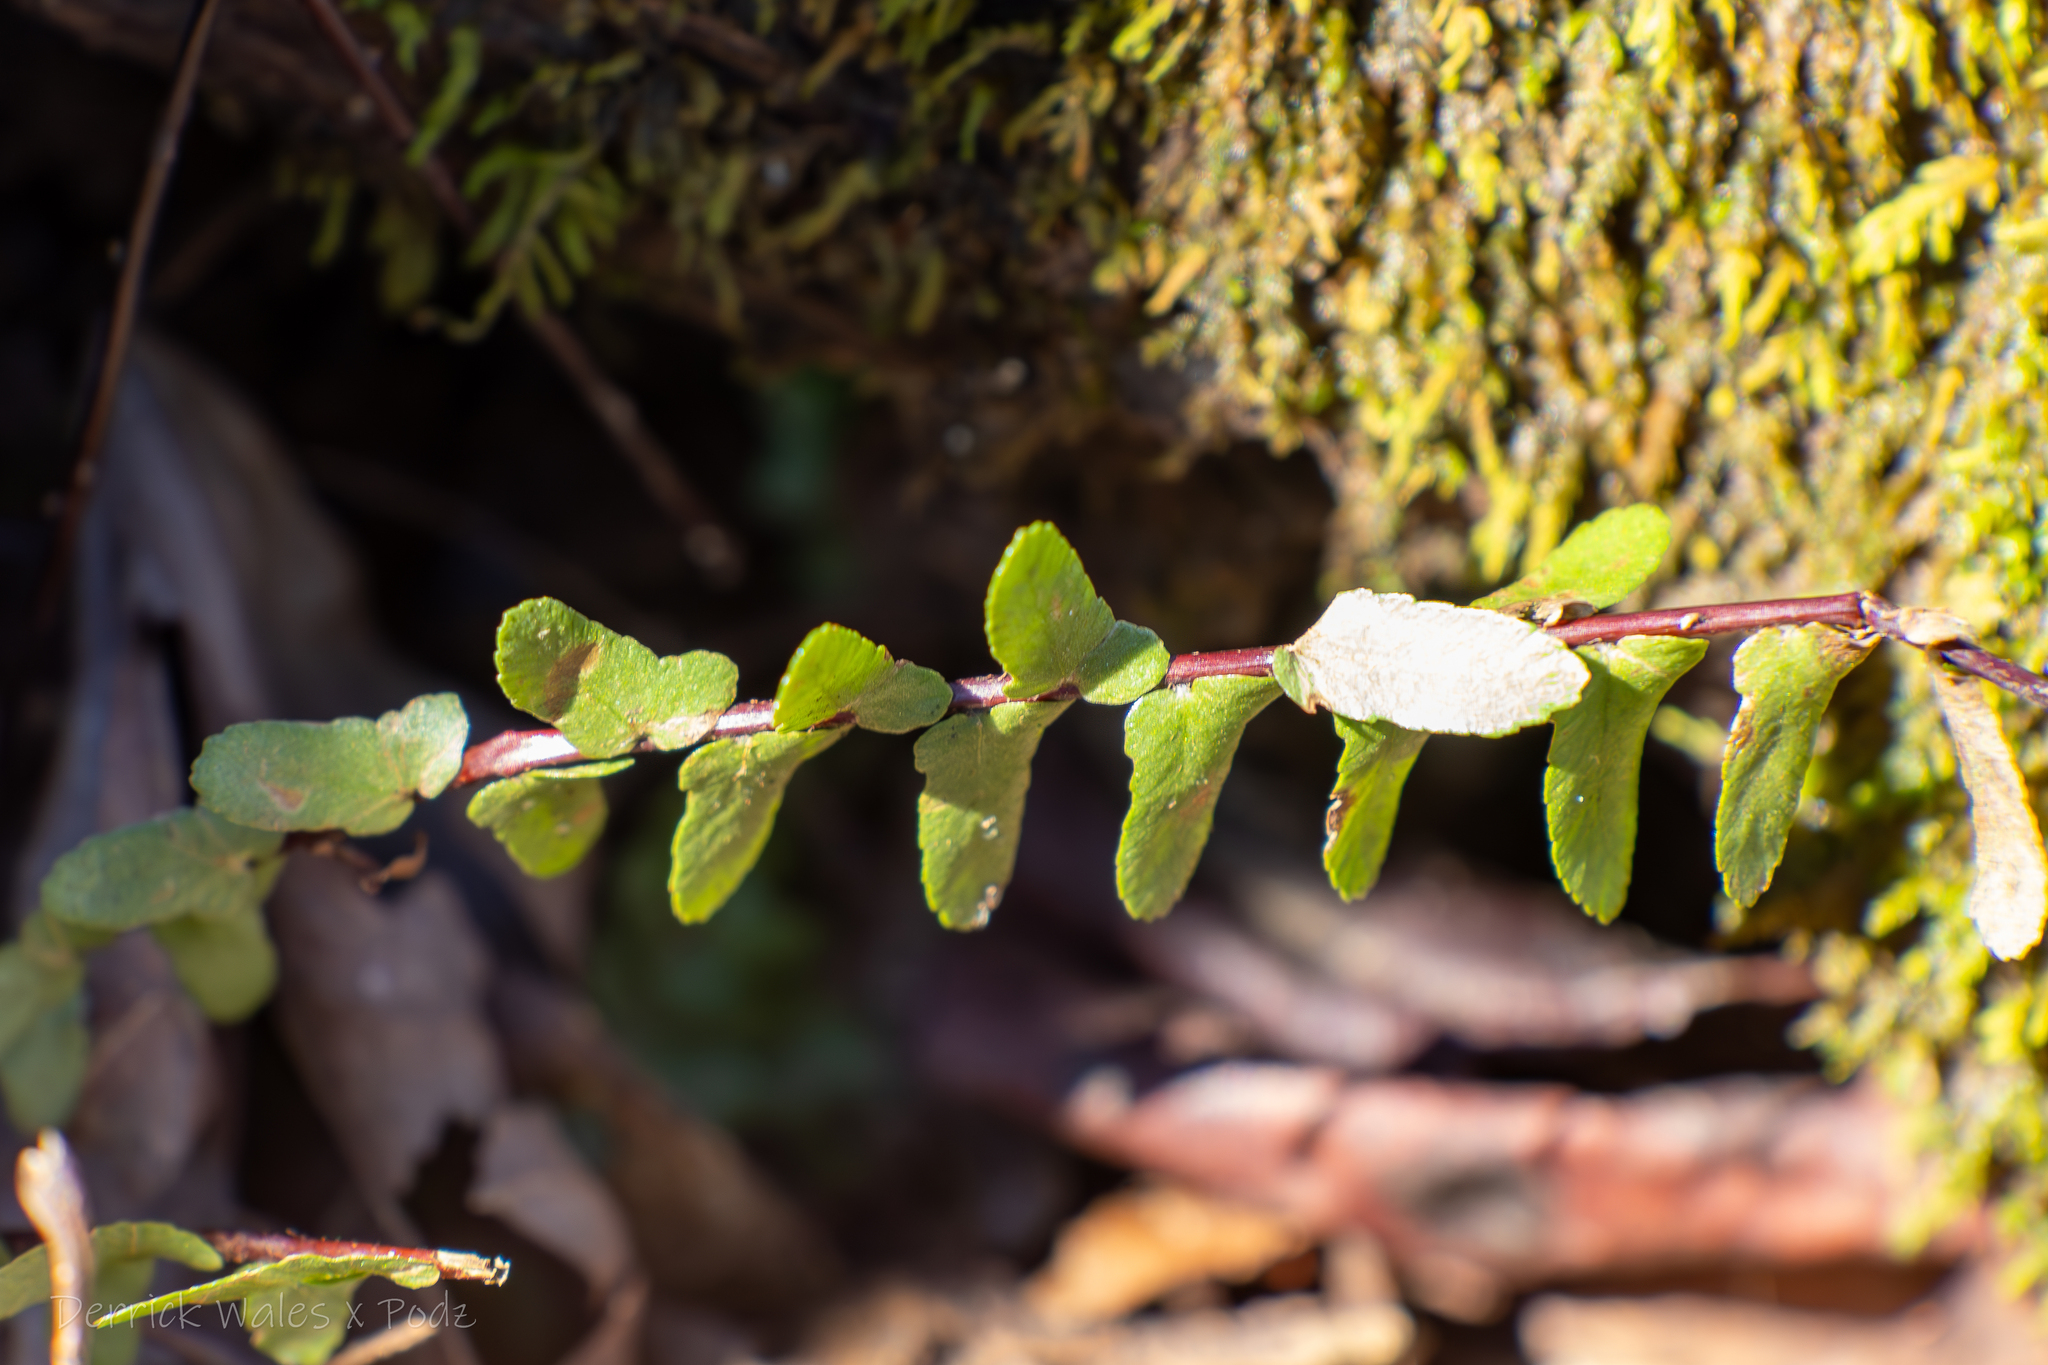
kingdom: Plantae
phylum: Tracheophyta
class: Polypodiopsida
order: Polypodiales
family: Aspleniaceae
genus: Asplenium
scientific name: Asplenium platyneuron
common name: Ebony spleenwort
